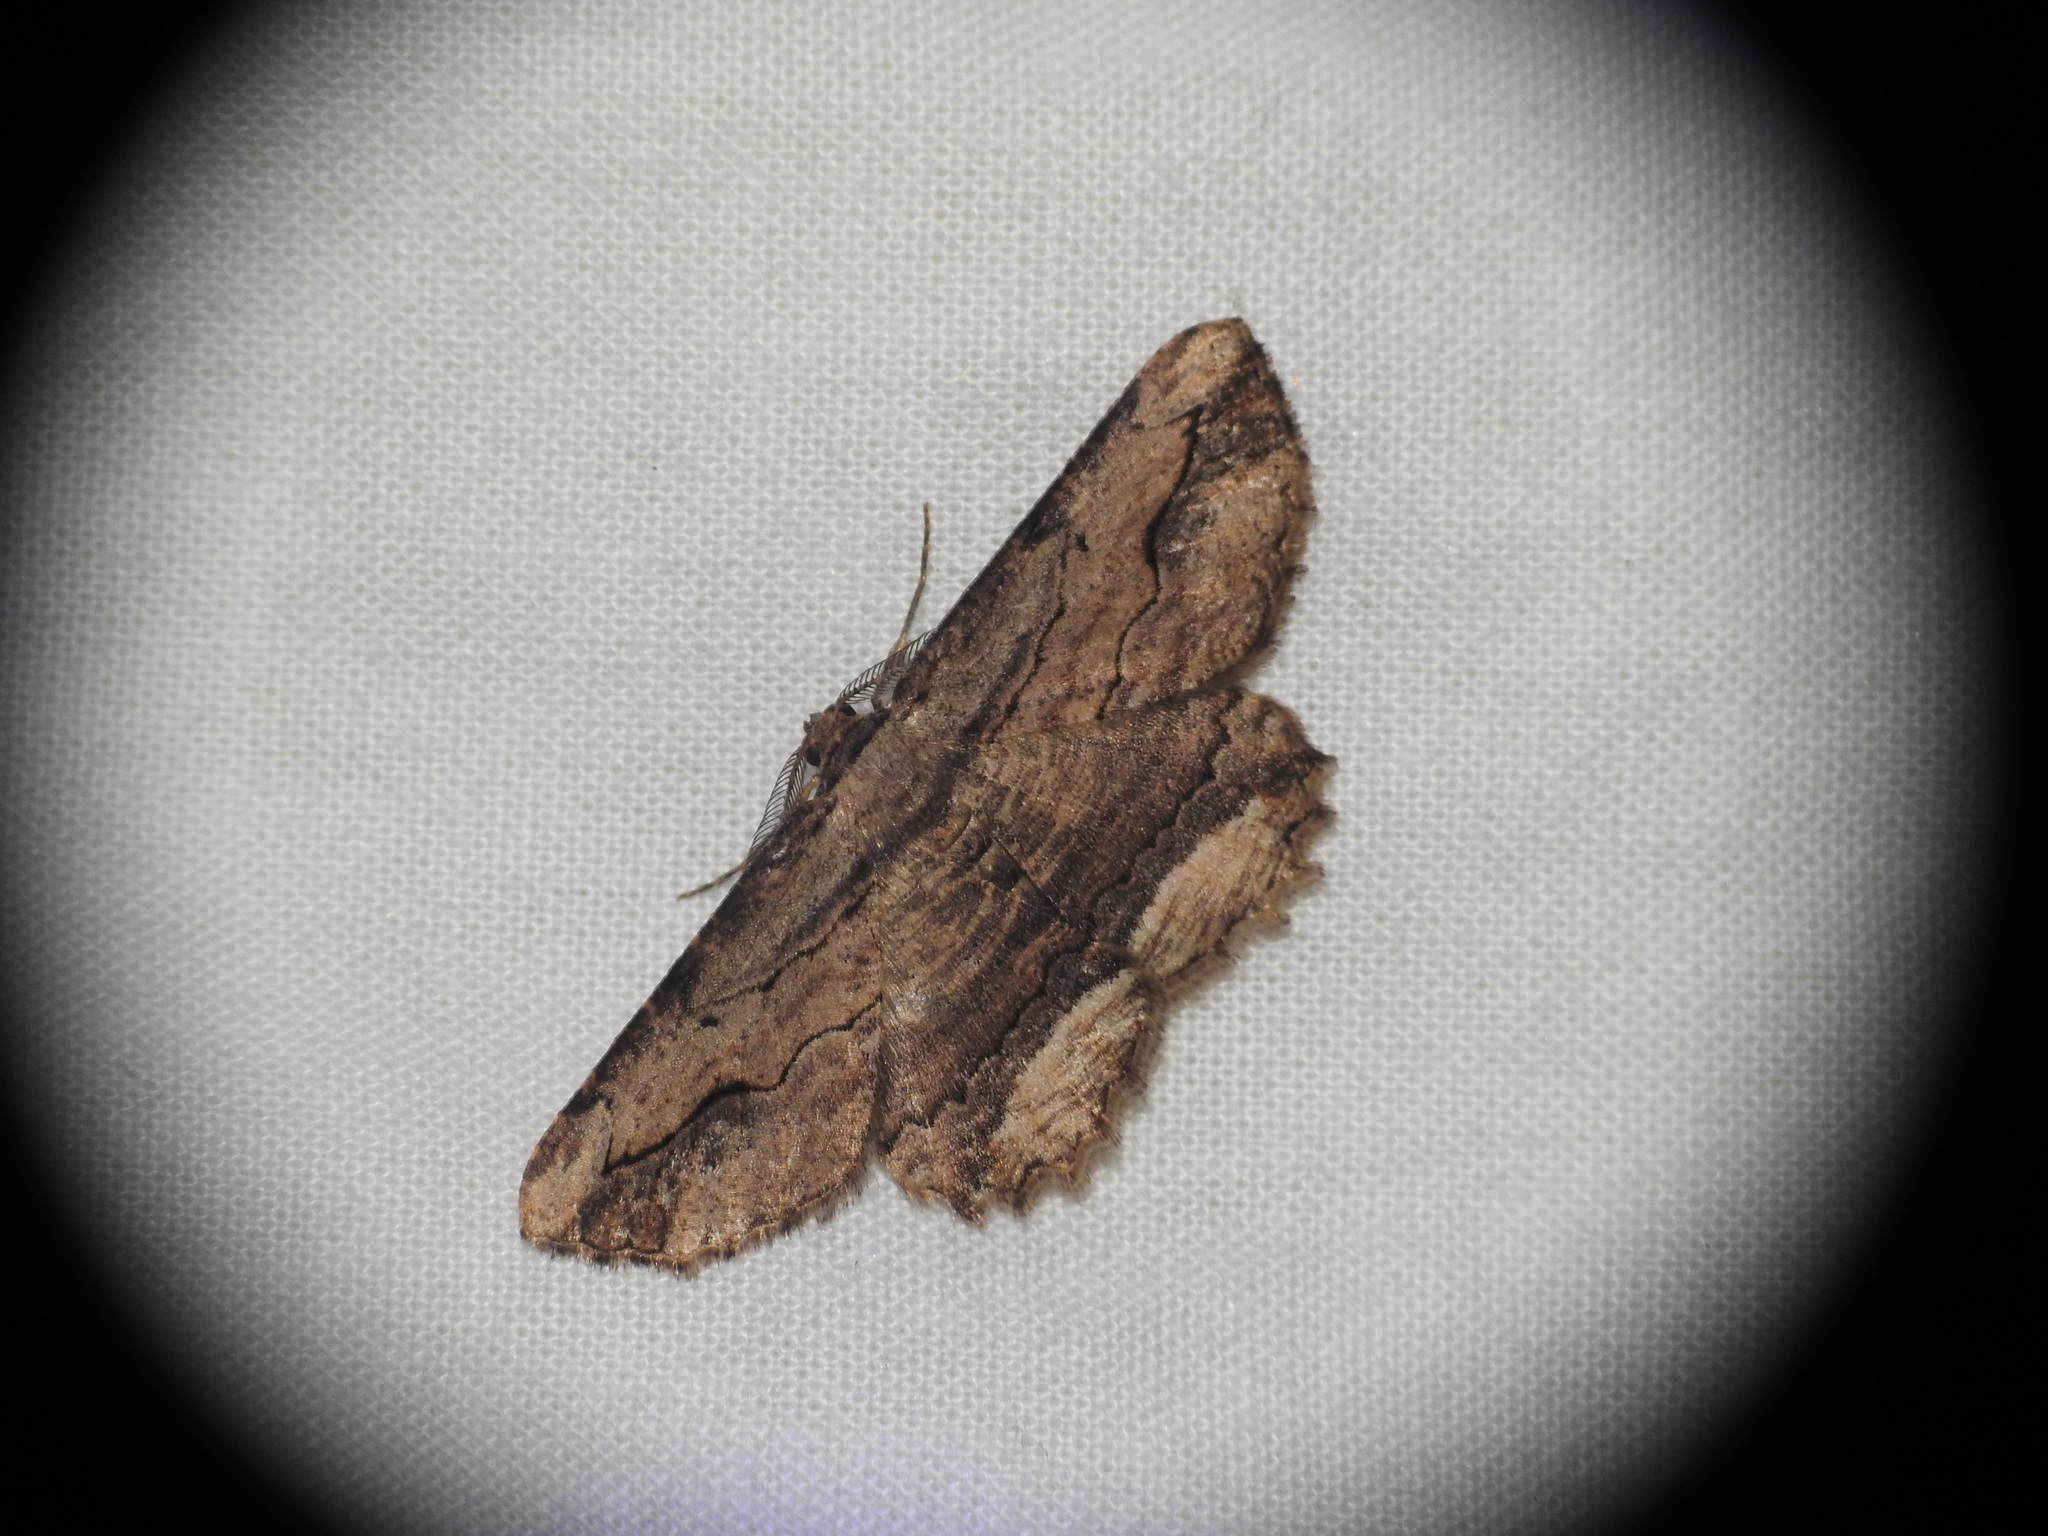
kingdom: Animalia
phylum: Arthropoda
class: Insecta
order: Lepidoptera
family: Geometridae
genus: Menophra
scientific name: Menophra abruptaria
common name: Waved umber
